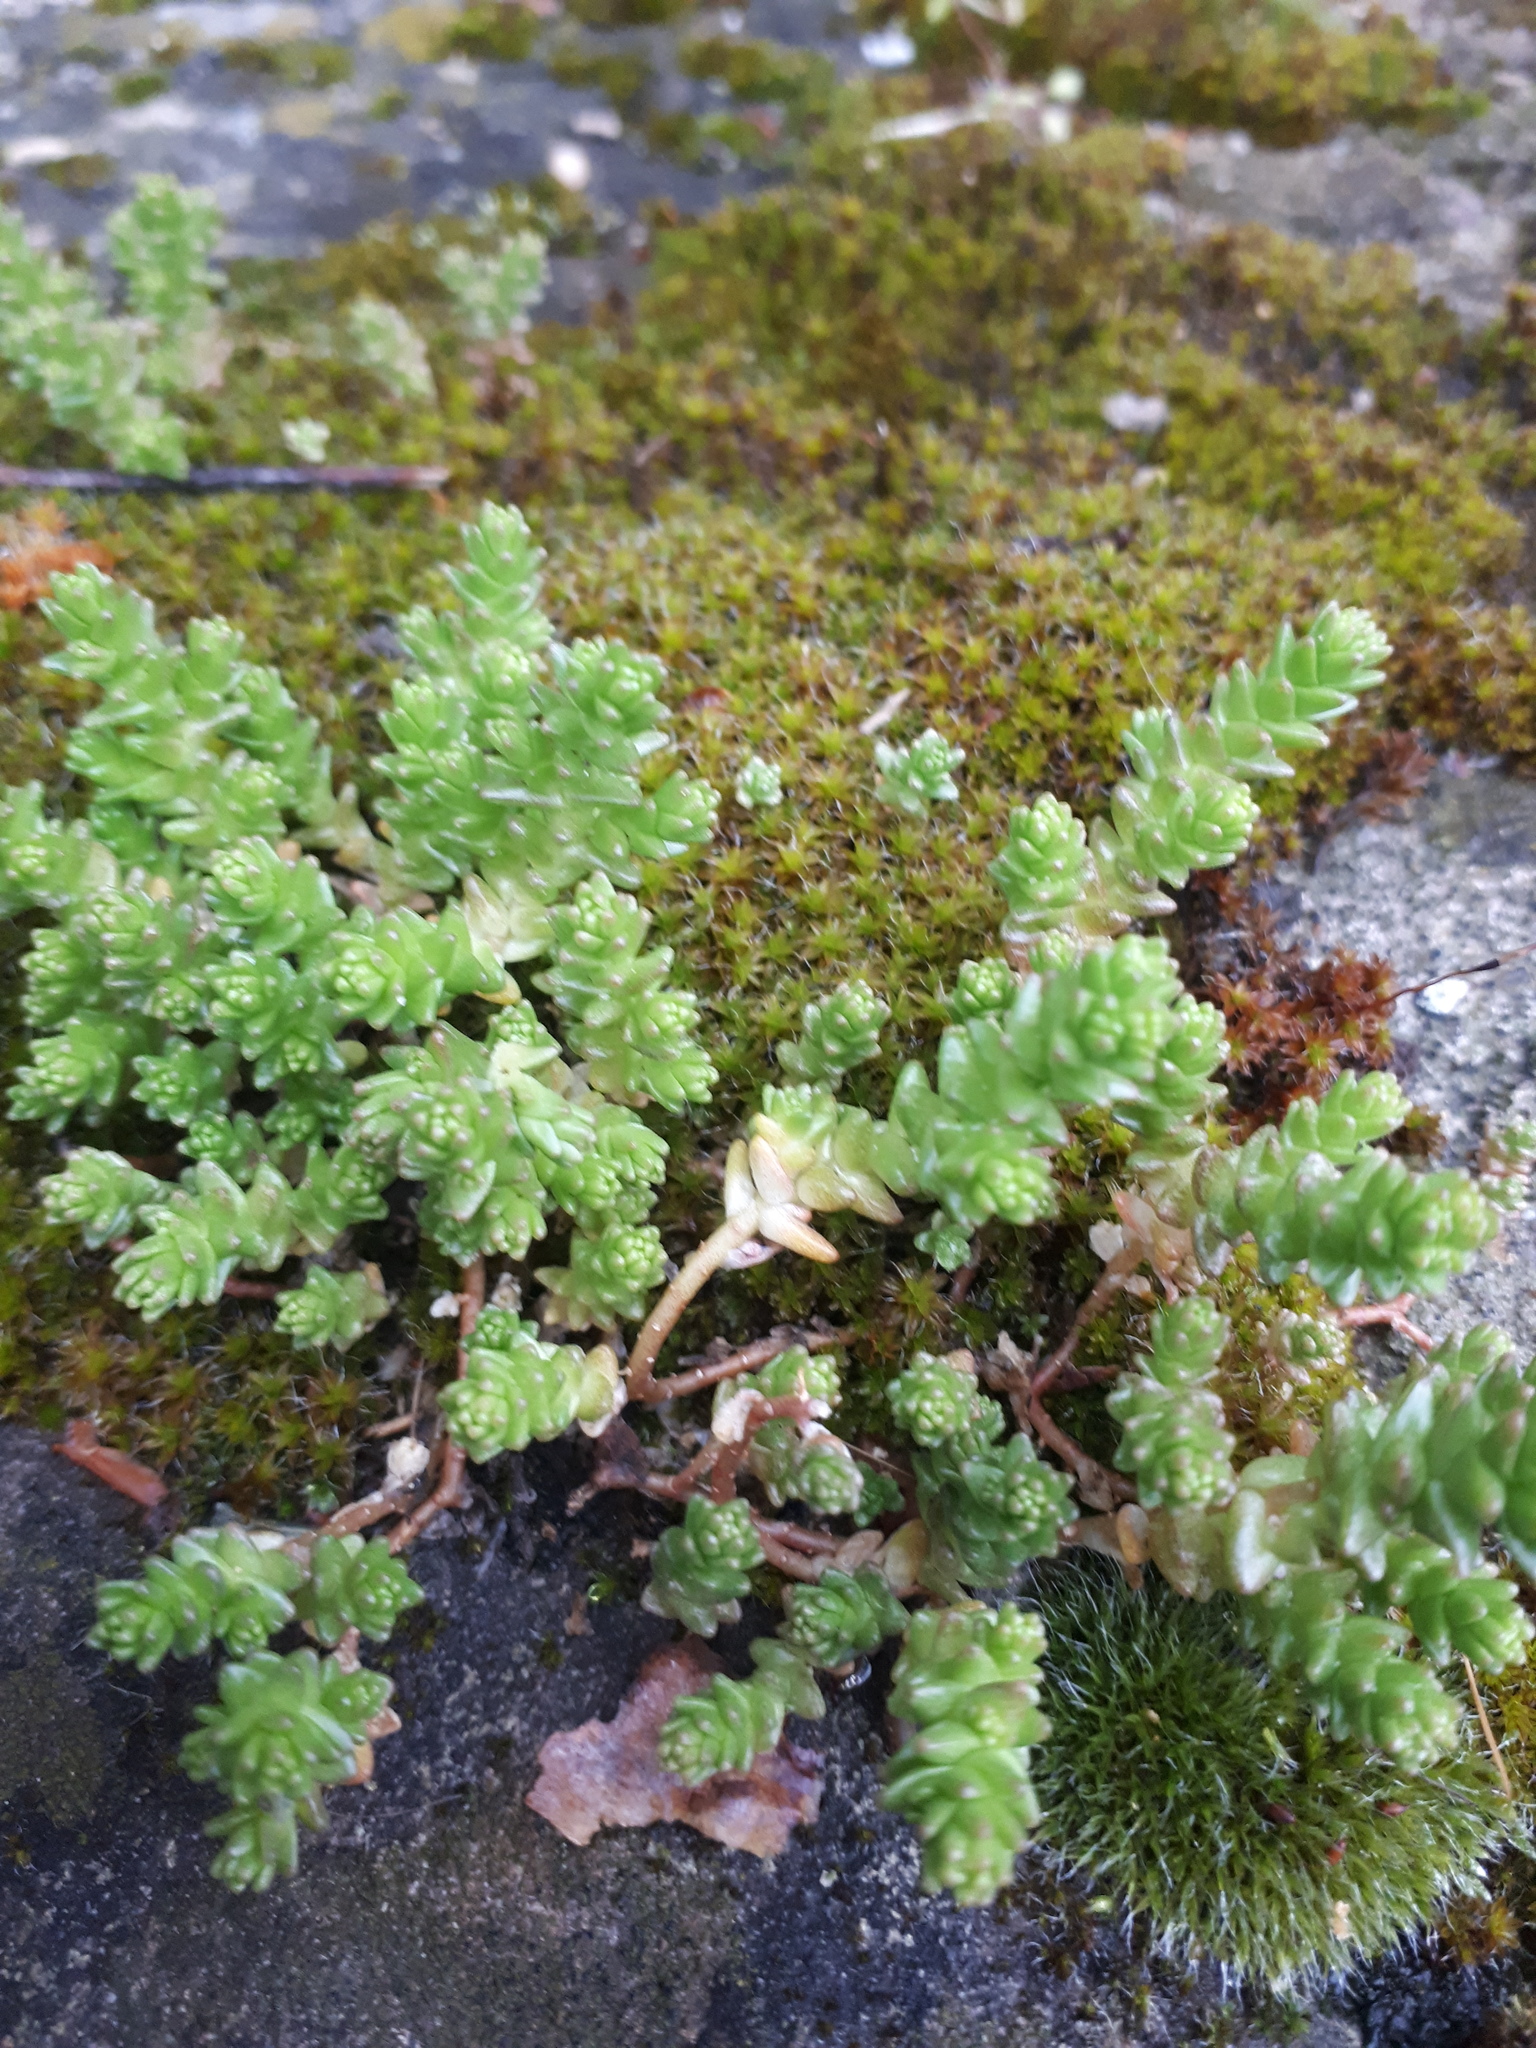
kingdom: Plantae
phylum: Tracheophyta
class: Magnoliopsida
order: Saxifragales
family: Crassulaceae
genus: Sedum
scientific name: Sedum acre
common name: Biting stonecrop
